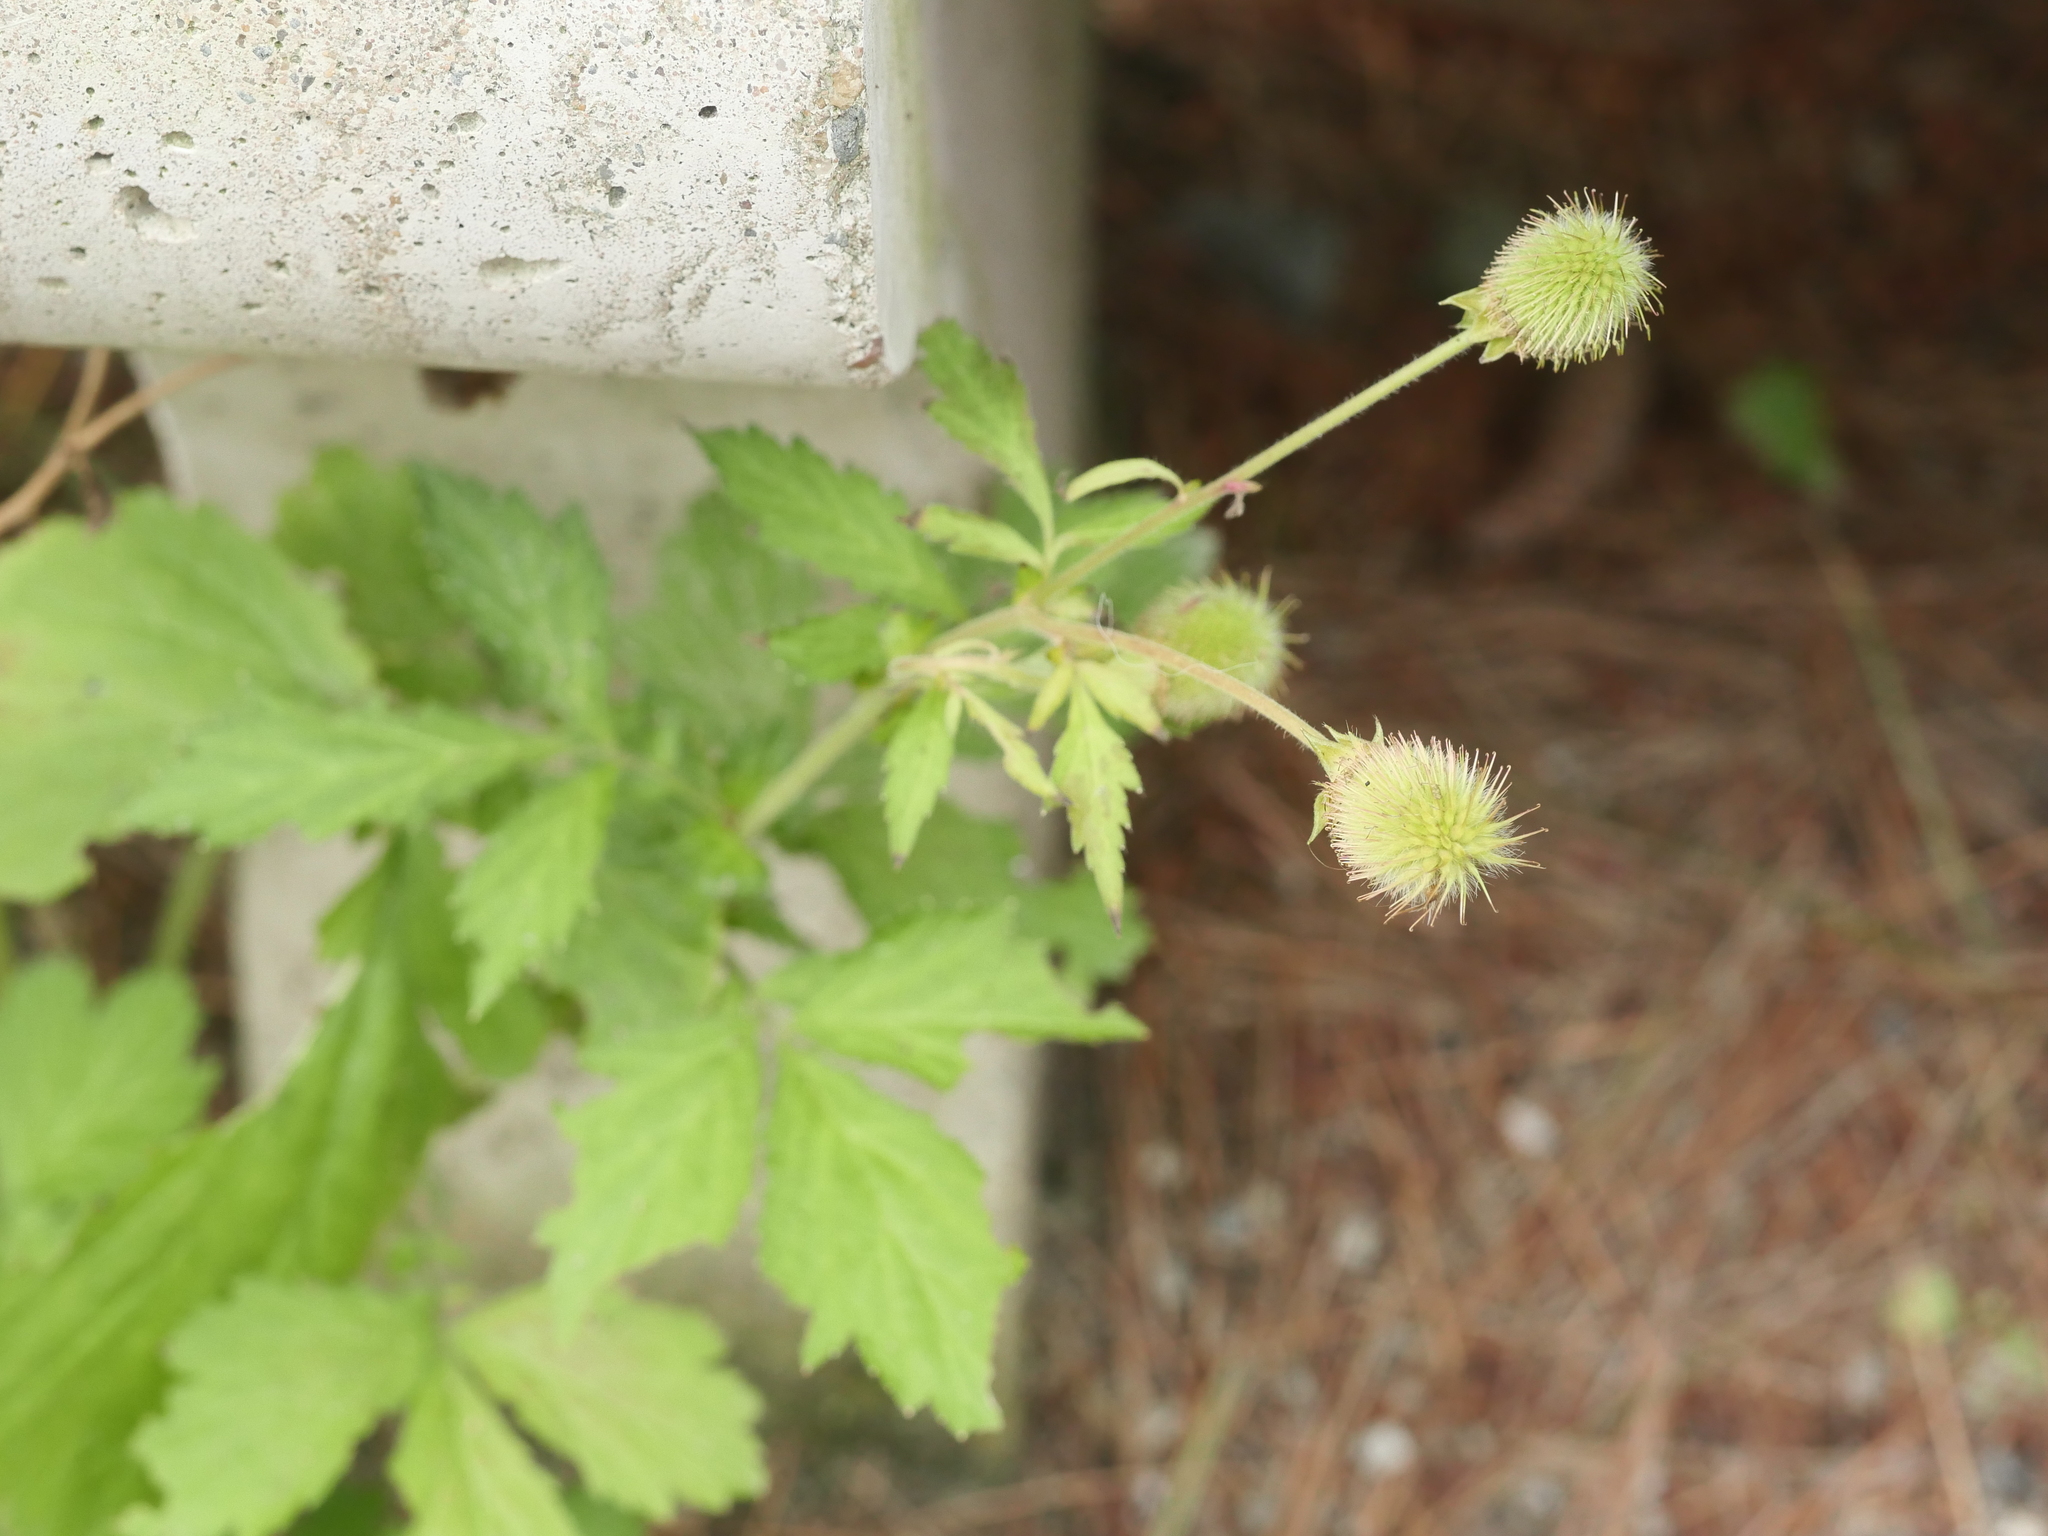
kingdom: Plantae
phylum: Tracheophyta
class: Magnoliopsida
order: Rosales
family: Rosaceae
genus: Geum
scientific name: Geum aleppicum
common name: Yellow avens
